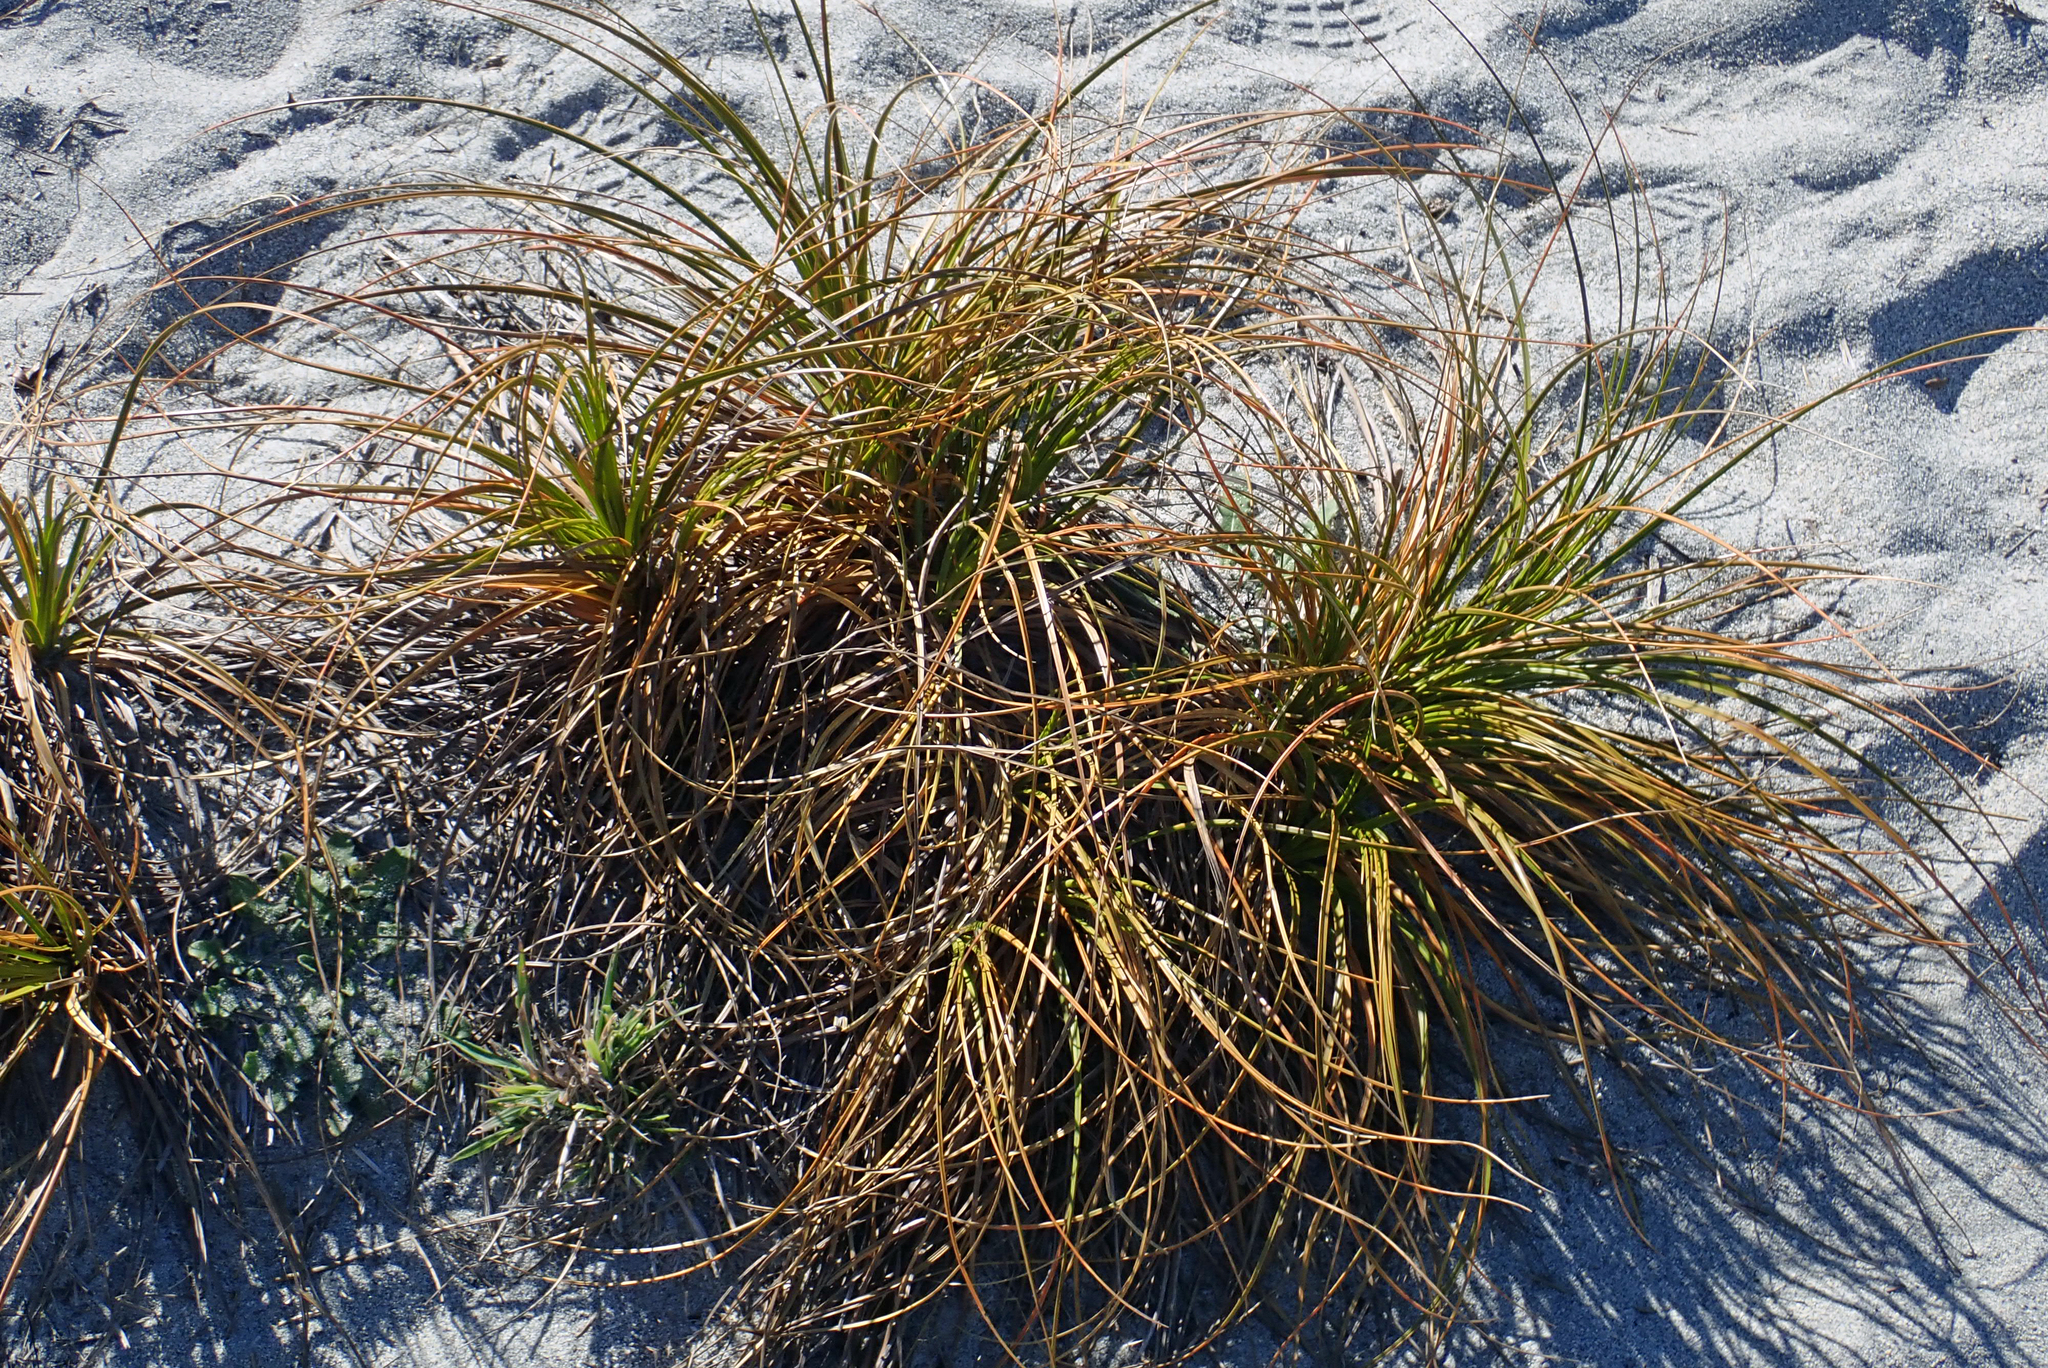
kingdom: Plantae
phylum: Tracheophyta
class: Liliopsida
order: Poales
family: Cyperaceae
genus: Ficinia
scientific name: Ficinia spiralis
